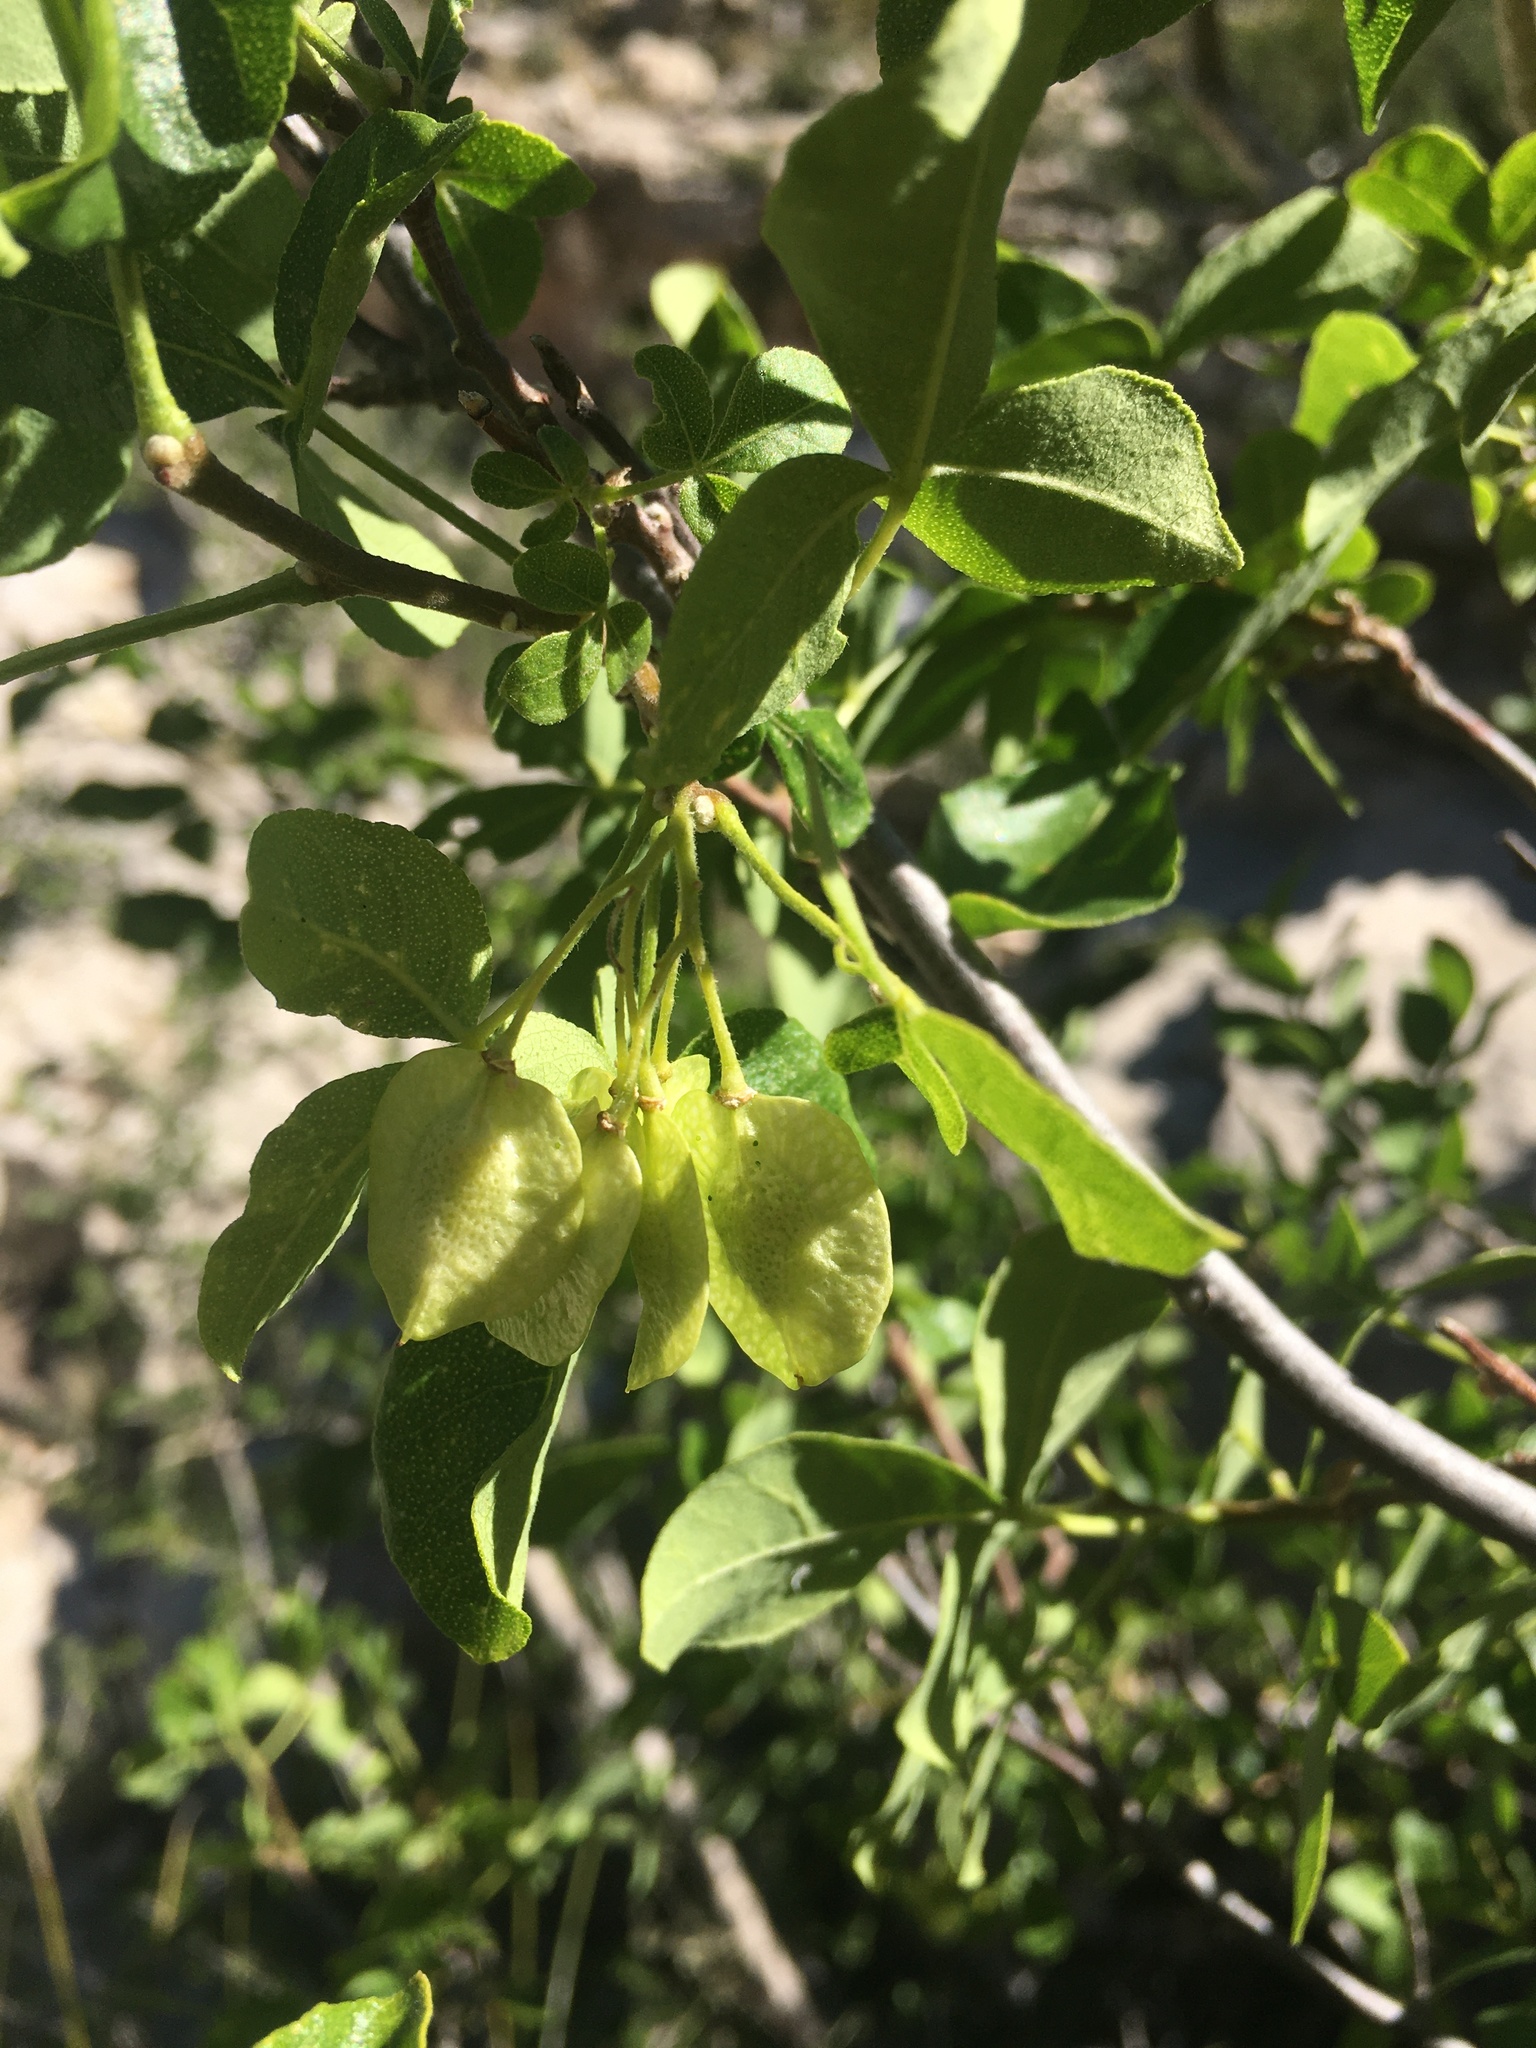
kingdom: Plantae
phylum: Tracheophyta
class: Magnoliopsida
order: Sapindales
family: Rutaceae
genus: Ptelea
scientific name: Ptelea trifoliata
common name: Common hop-tree
